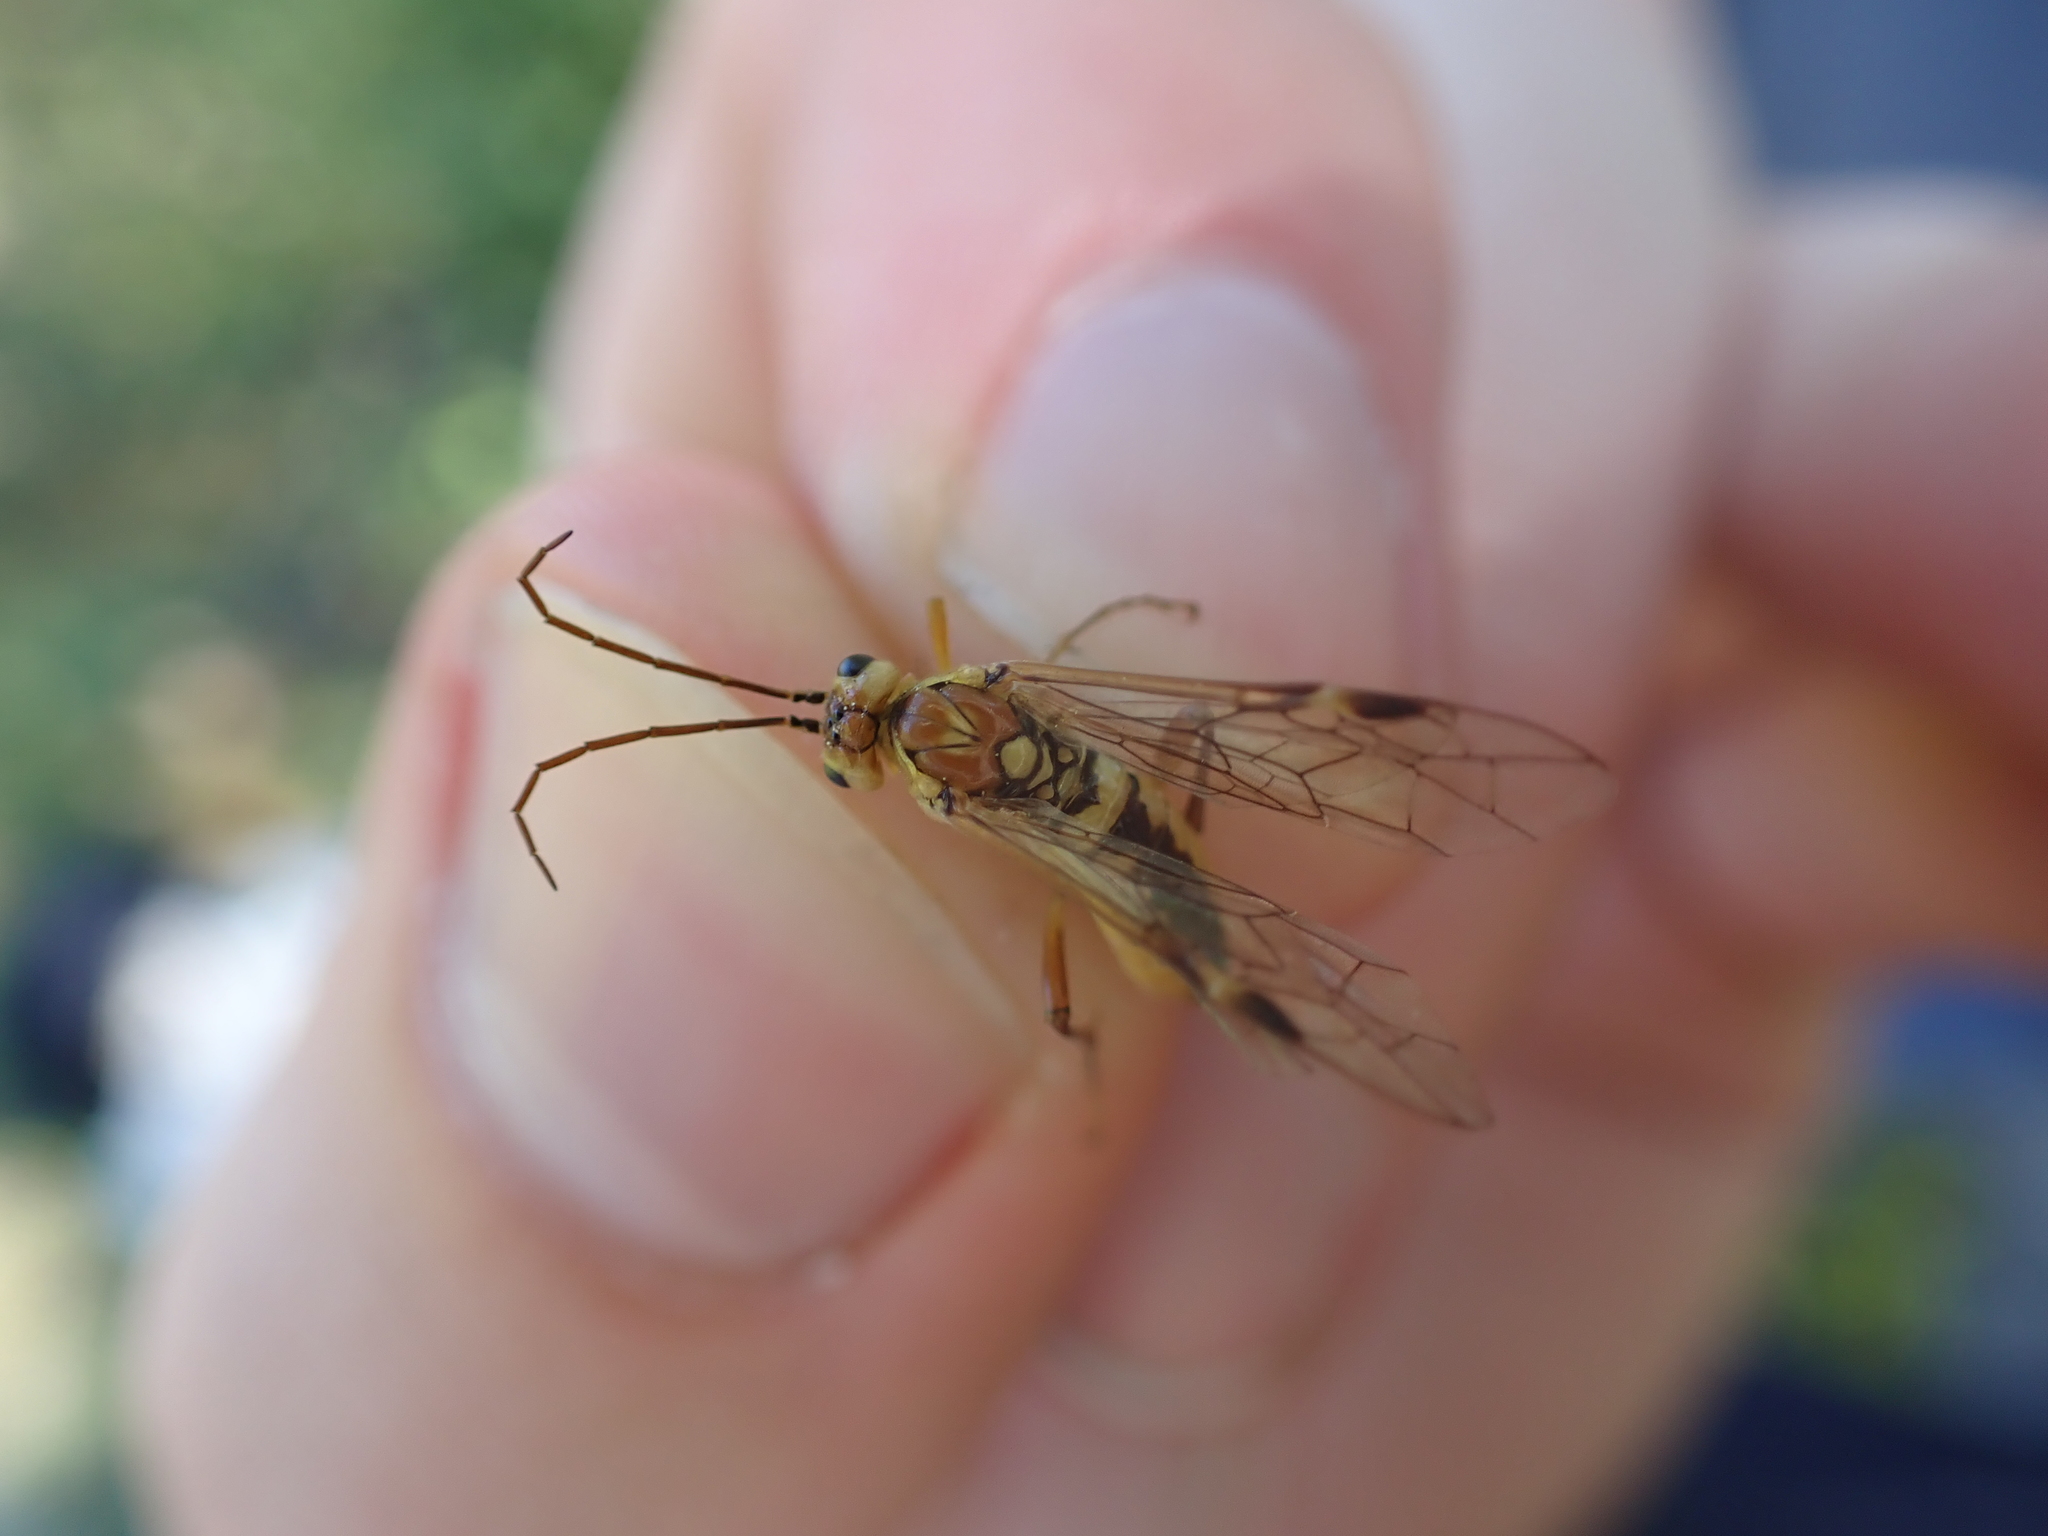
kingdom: Animalia
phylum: Arthropoda
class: Insecta
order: Hymenoptera
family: Tenthredinidae
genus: Tenthredopsis
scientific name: Tenthredopsis sordida
